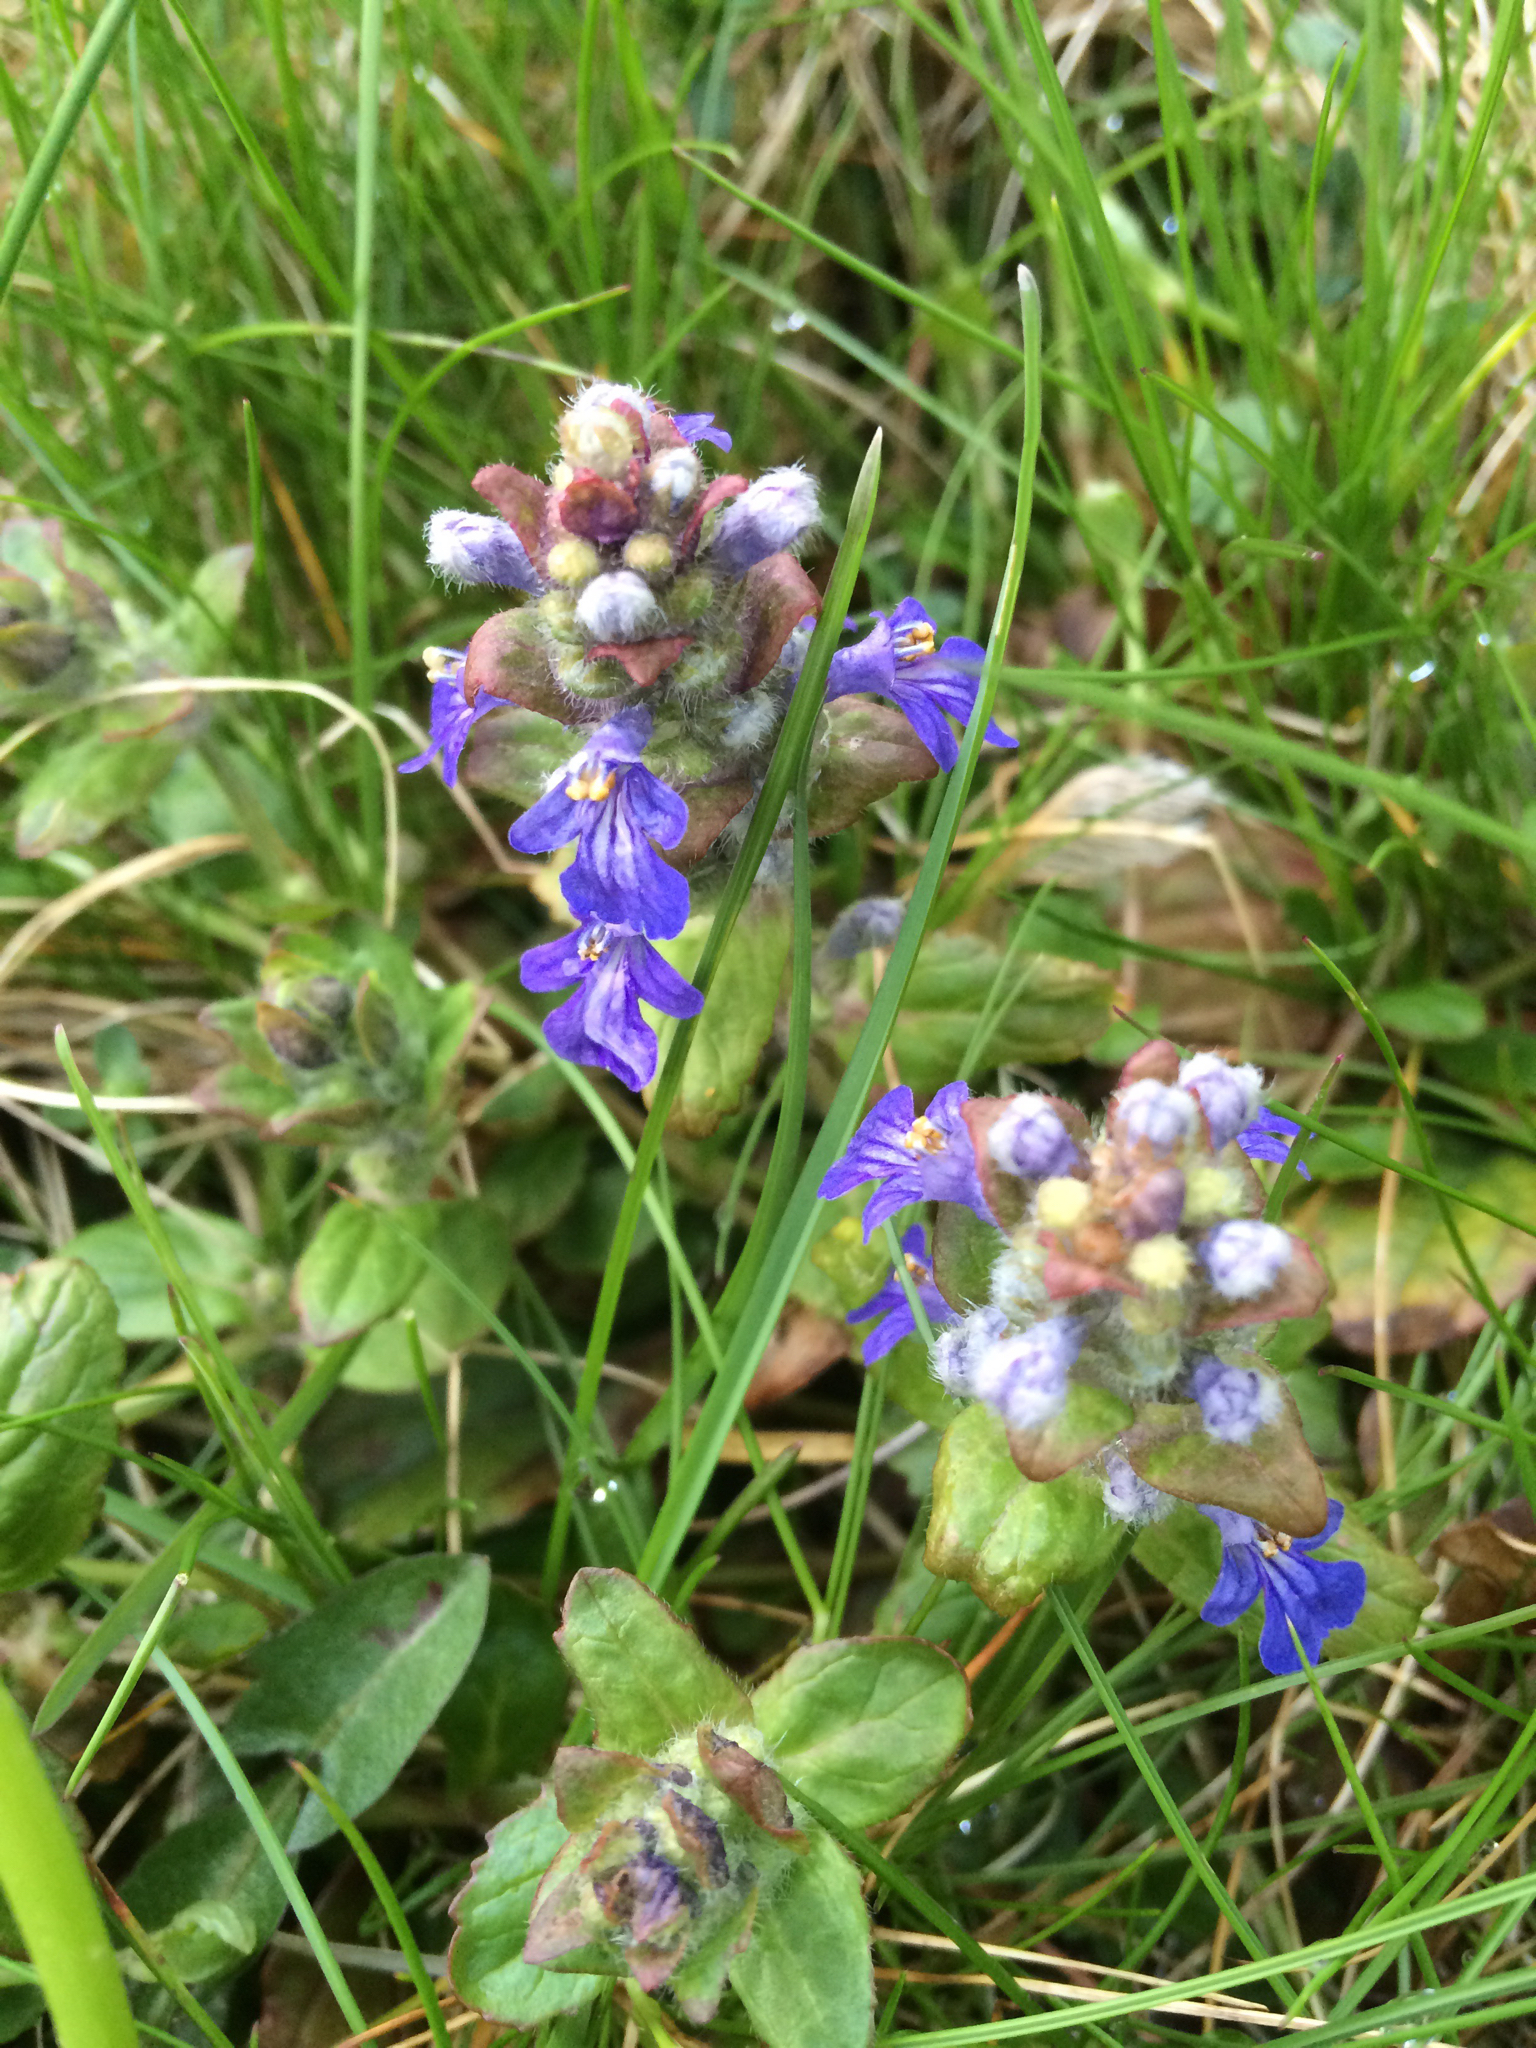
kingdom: Plantae
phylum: Tracheophyta
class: Magnoliopsida
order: Lamiales
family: Lamiaceae
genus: Ajuga
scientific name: Ajuga reptans
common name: Bugle
